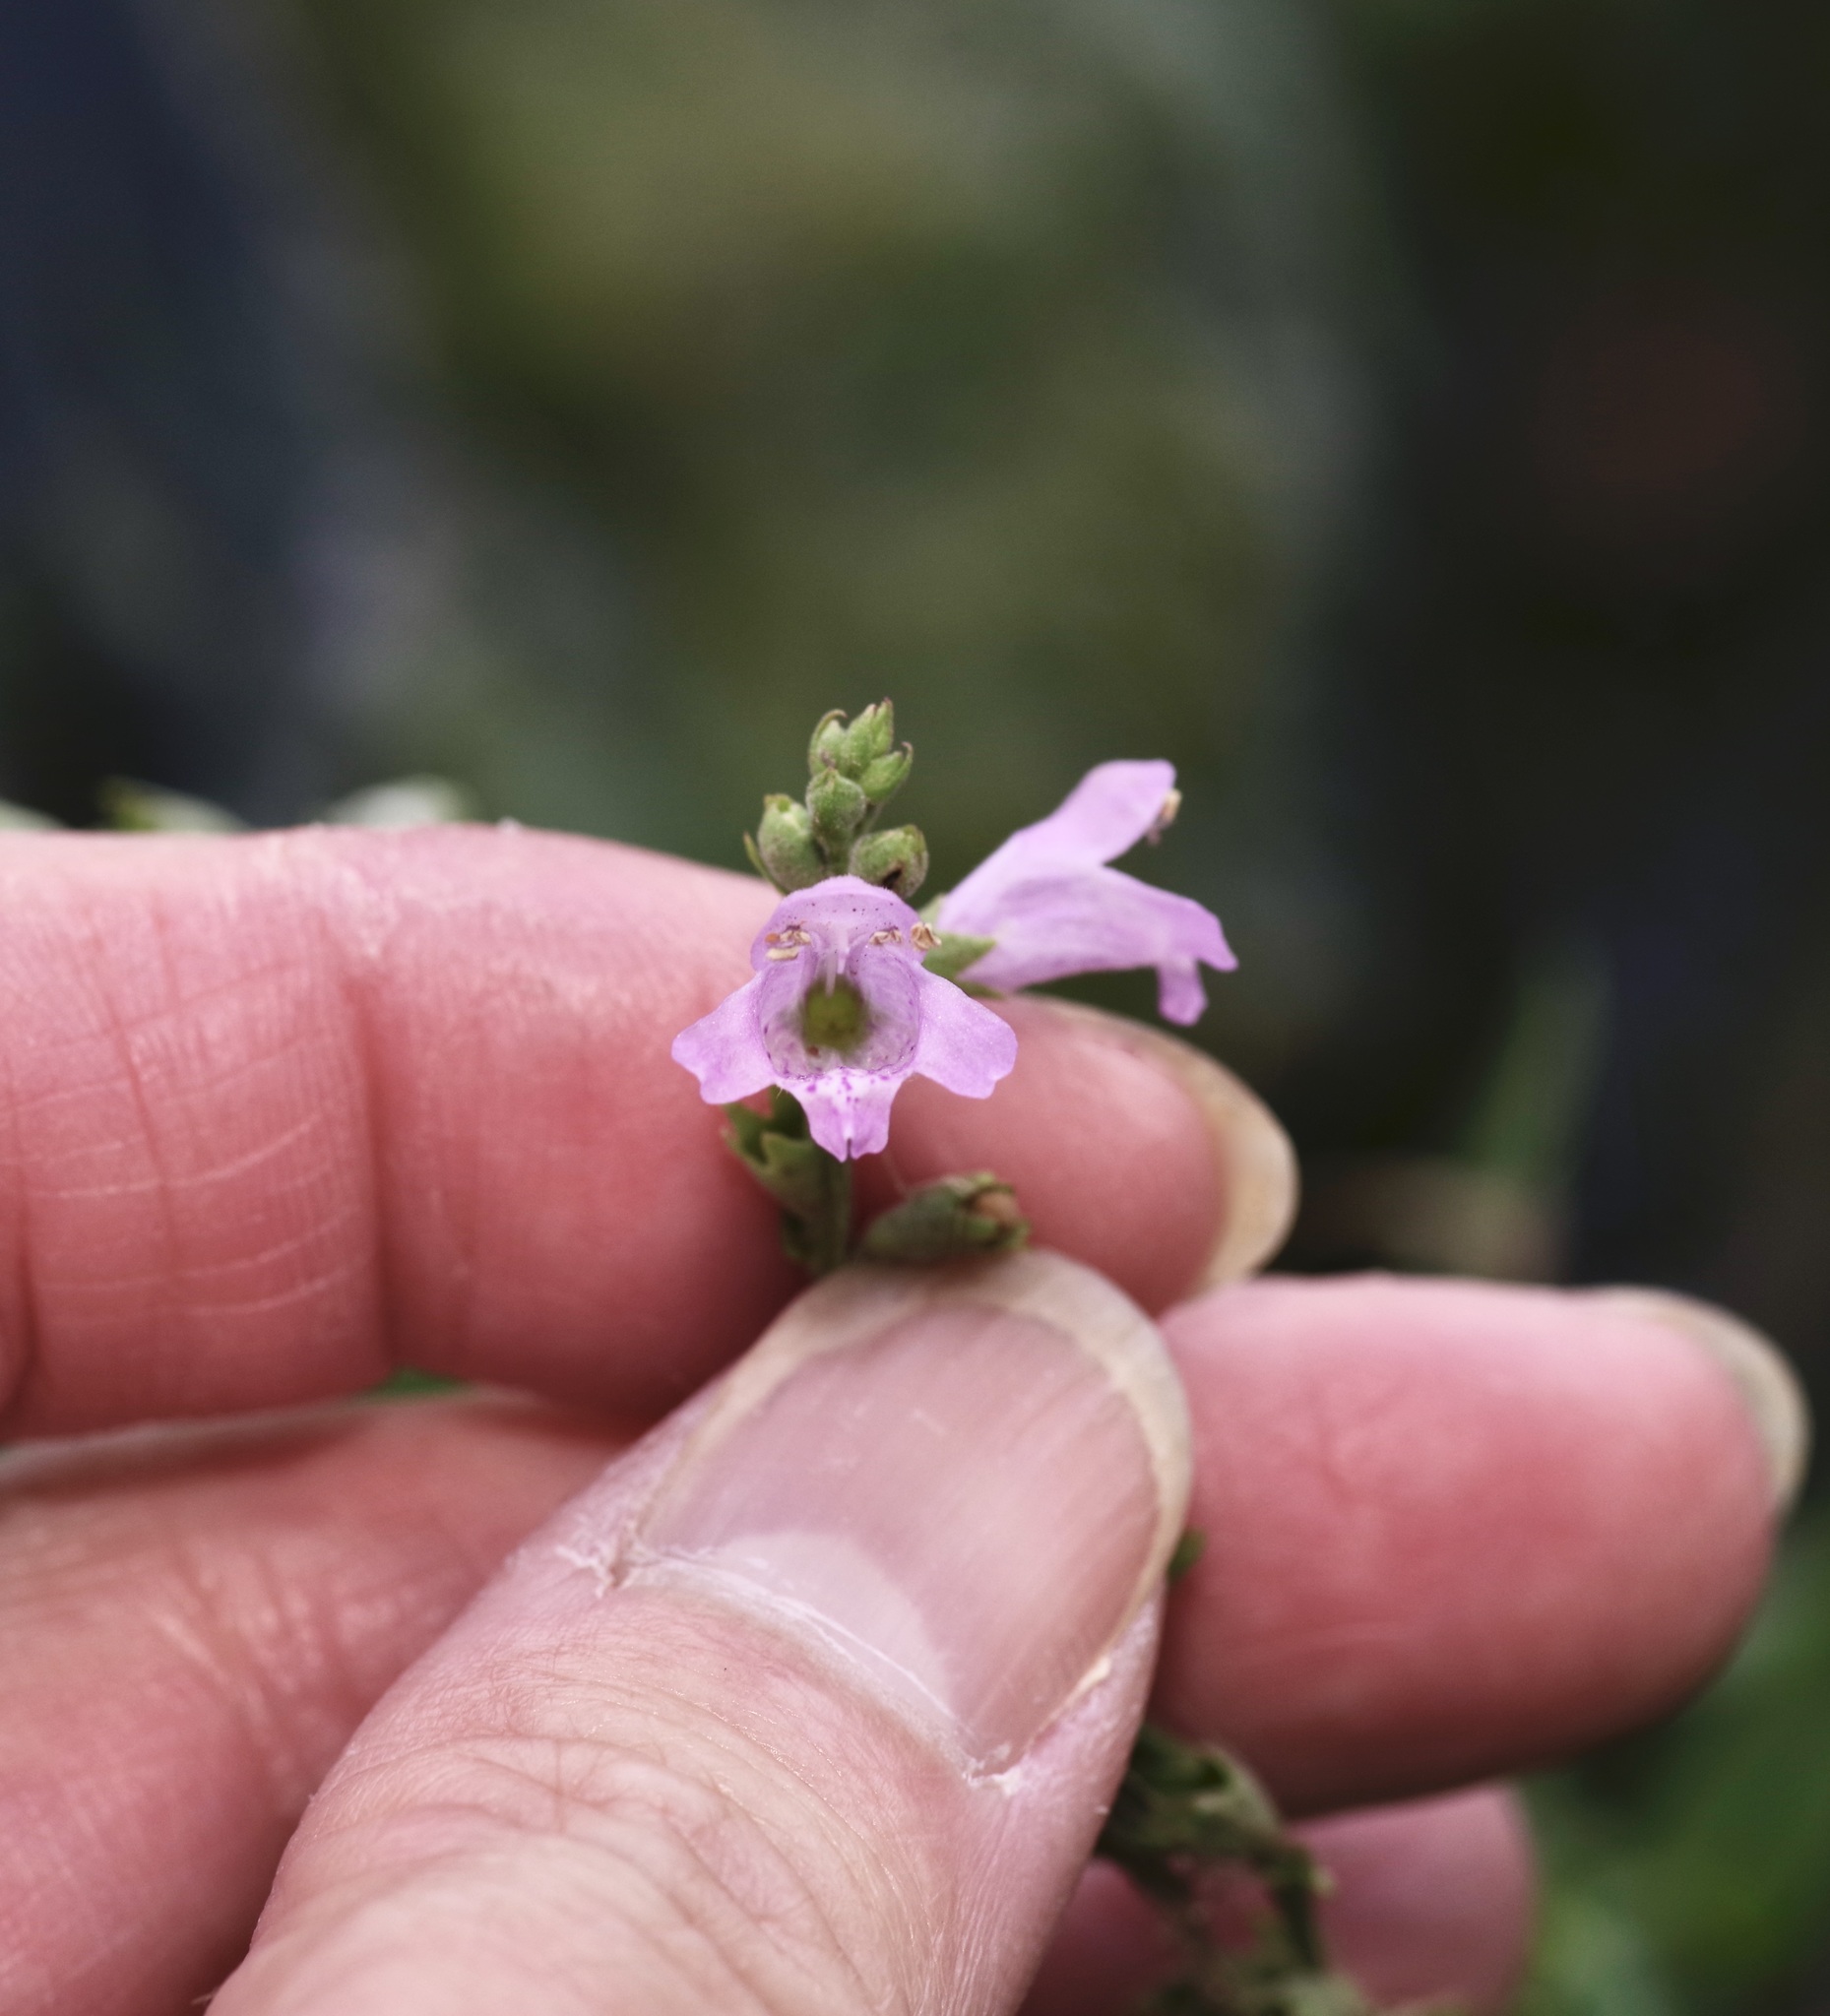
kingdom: Plantae
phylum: Tracheophyta
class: Magnoliopsida
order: Lamiales
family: Lamiaceae
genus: Physostegia
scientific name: Physostegia intermedia
